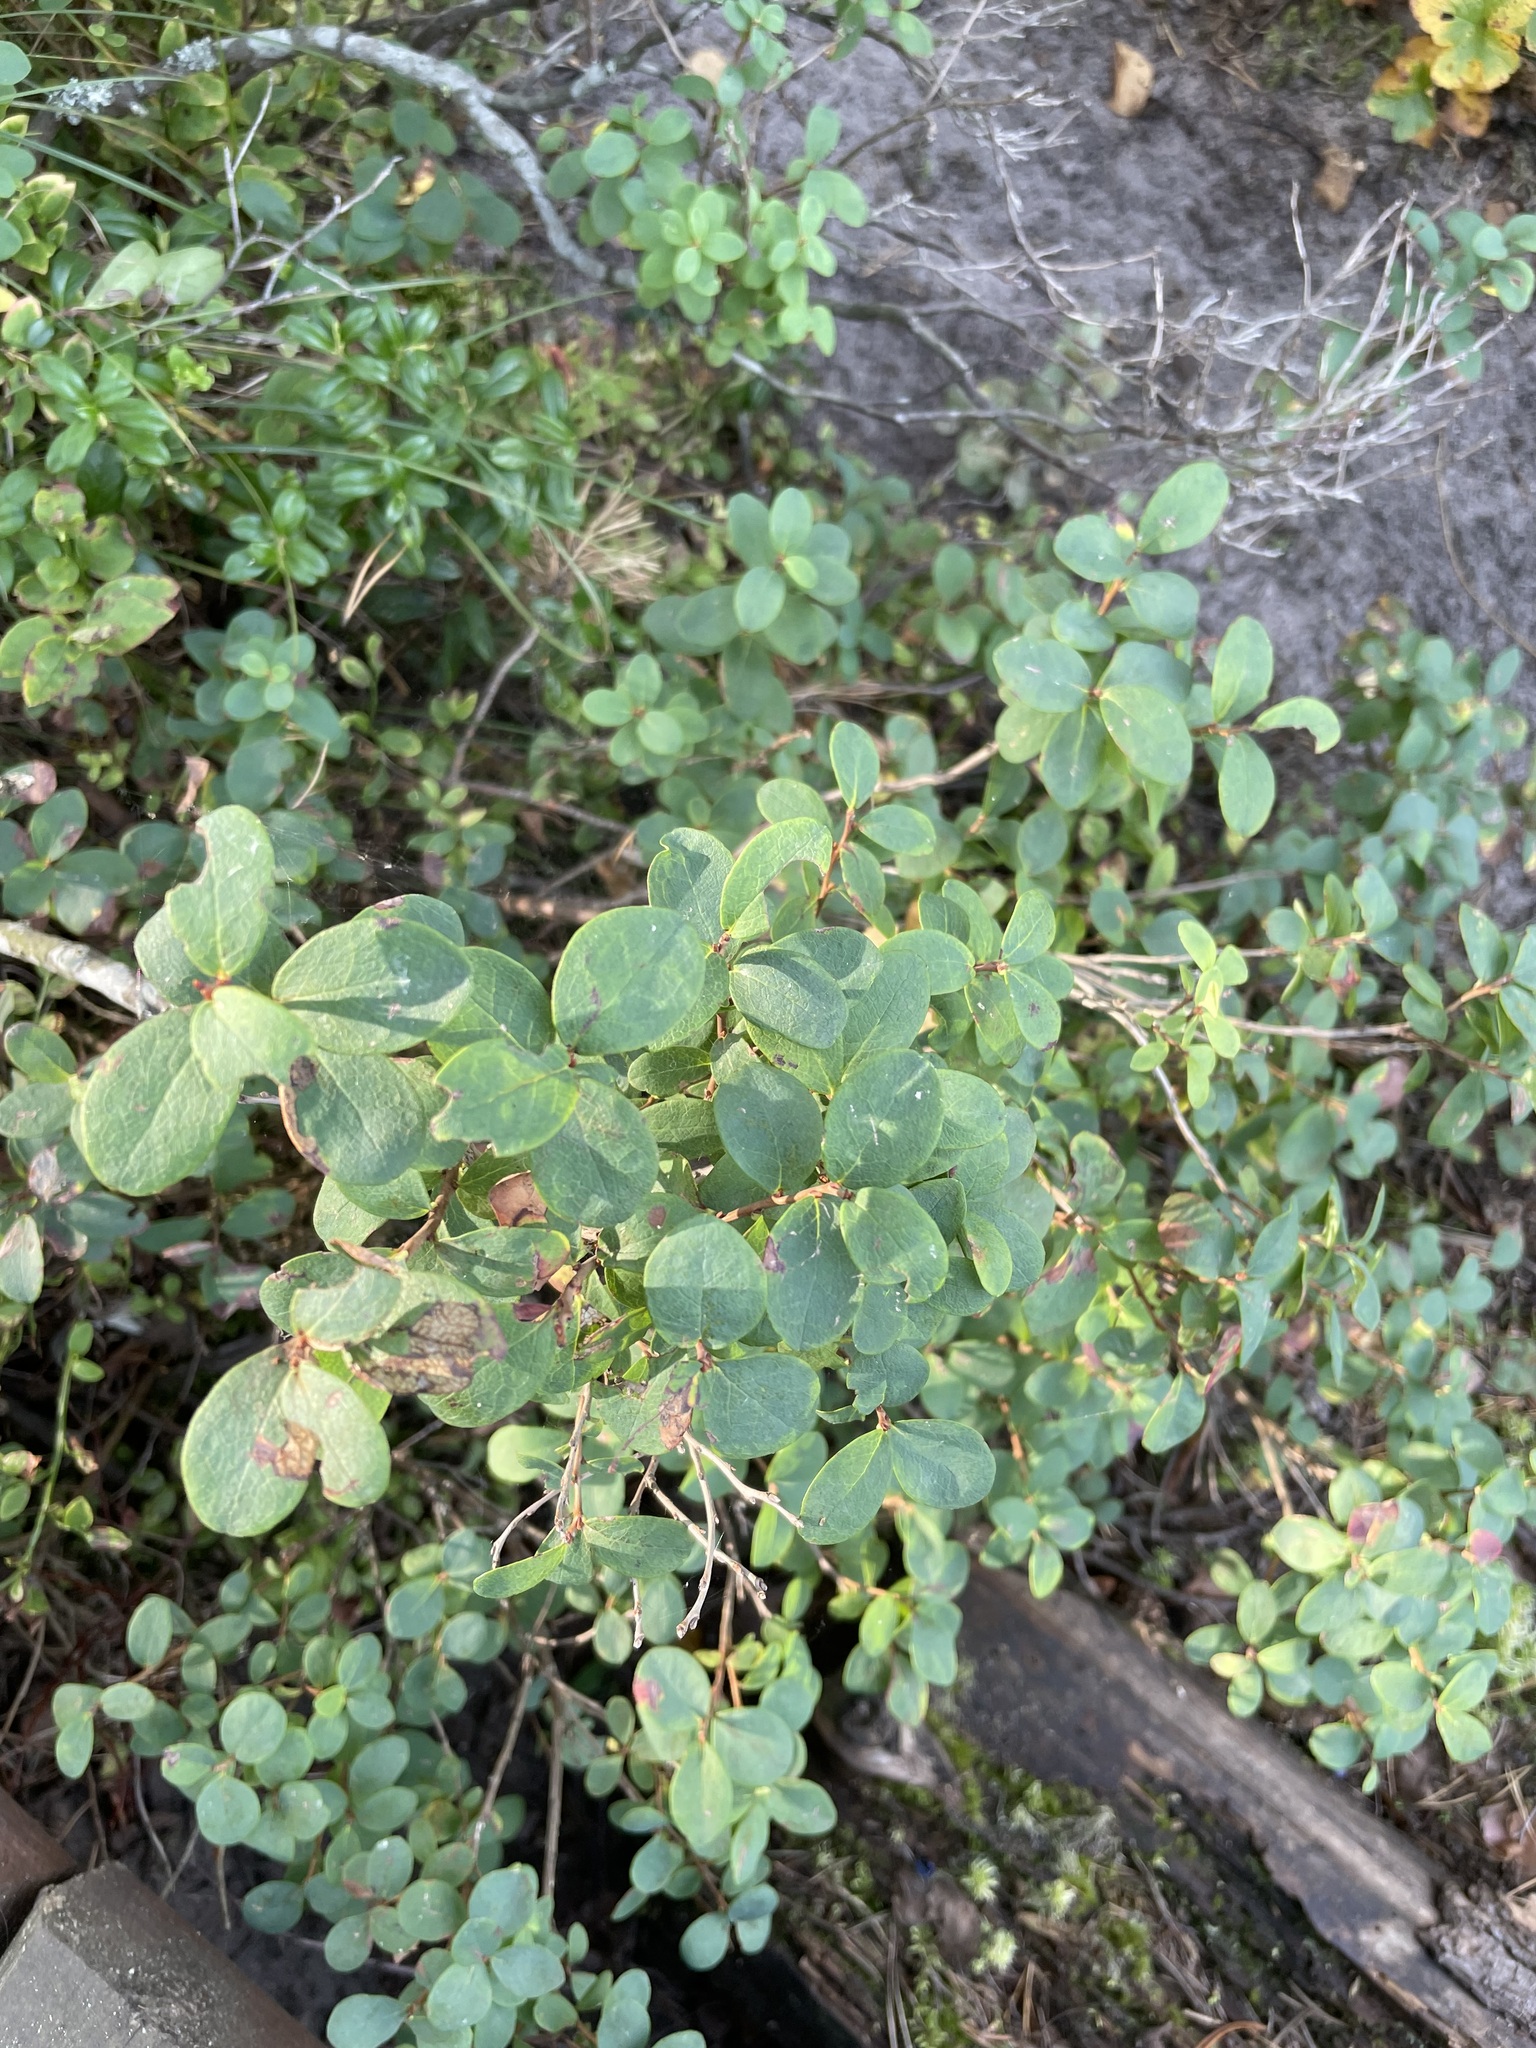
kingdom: Plantae
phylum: Tracheophyta
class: Magnoliopsida
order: Ericales
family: Ericaceae
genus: Vaccinium
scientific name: Vaccinium uliginosum
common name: Bog bilberry
